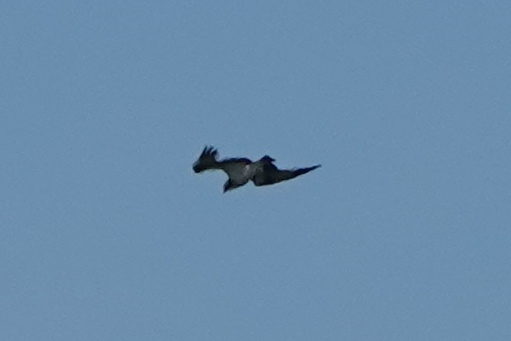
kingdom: Animalia
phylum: Chordata
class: Aves
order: Accipitriformes
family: Pandionidae
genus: Pandion
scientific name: Pandion haliaetus
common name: Osprey
